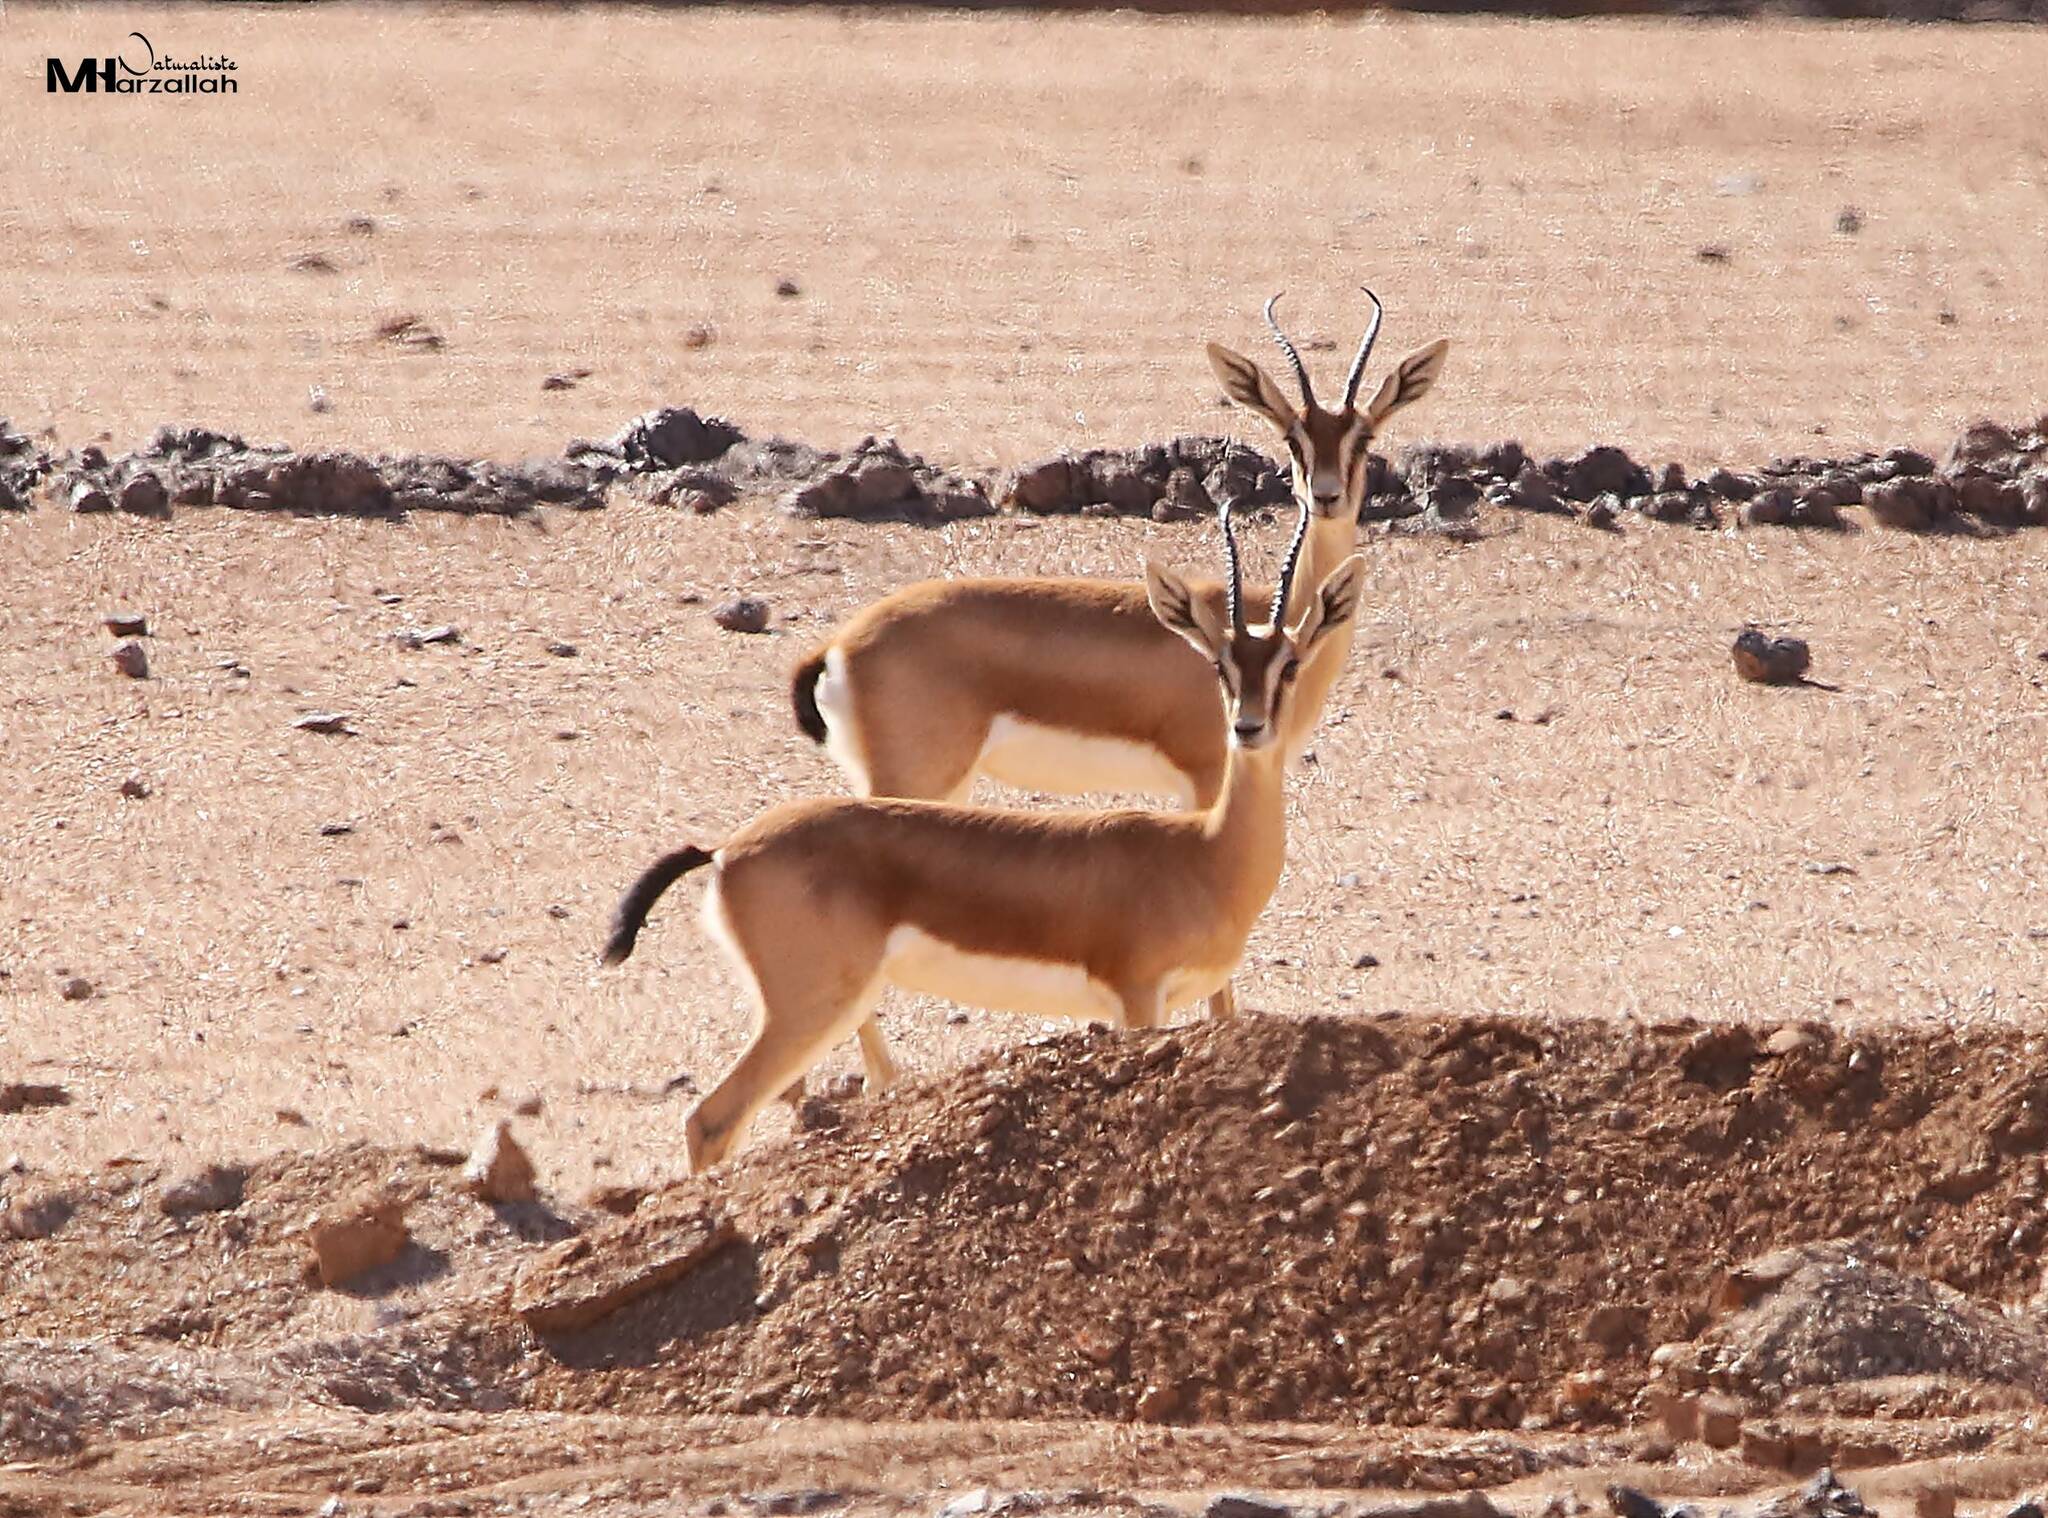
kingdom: Animalia
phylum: Chordata
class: Mammalia
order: Artiodactyla
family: Bovidae
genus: Gazella
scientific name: Gazella dorcas
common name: Dorcas gazelle
